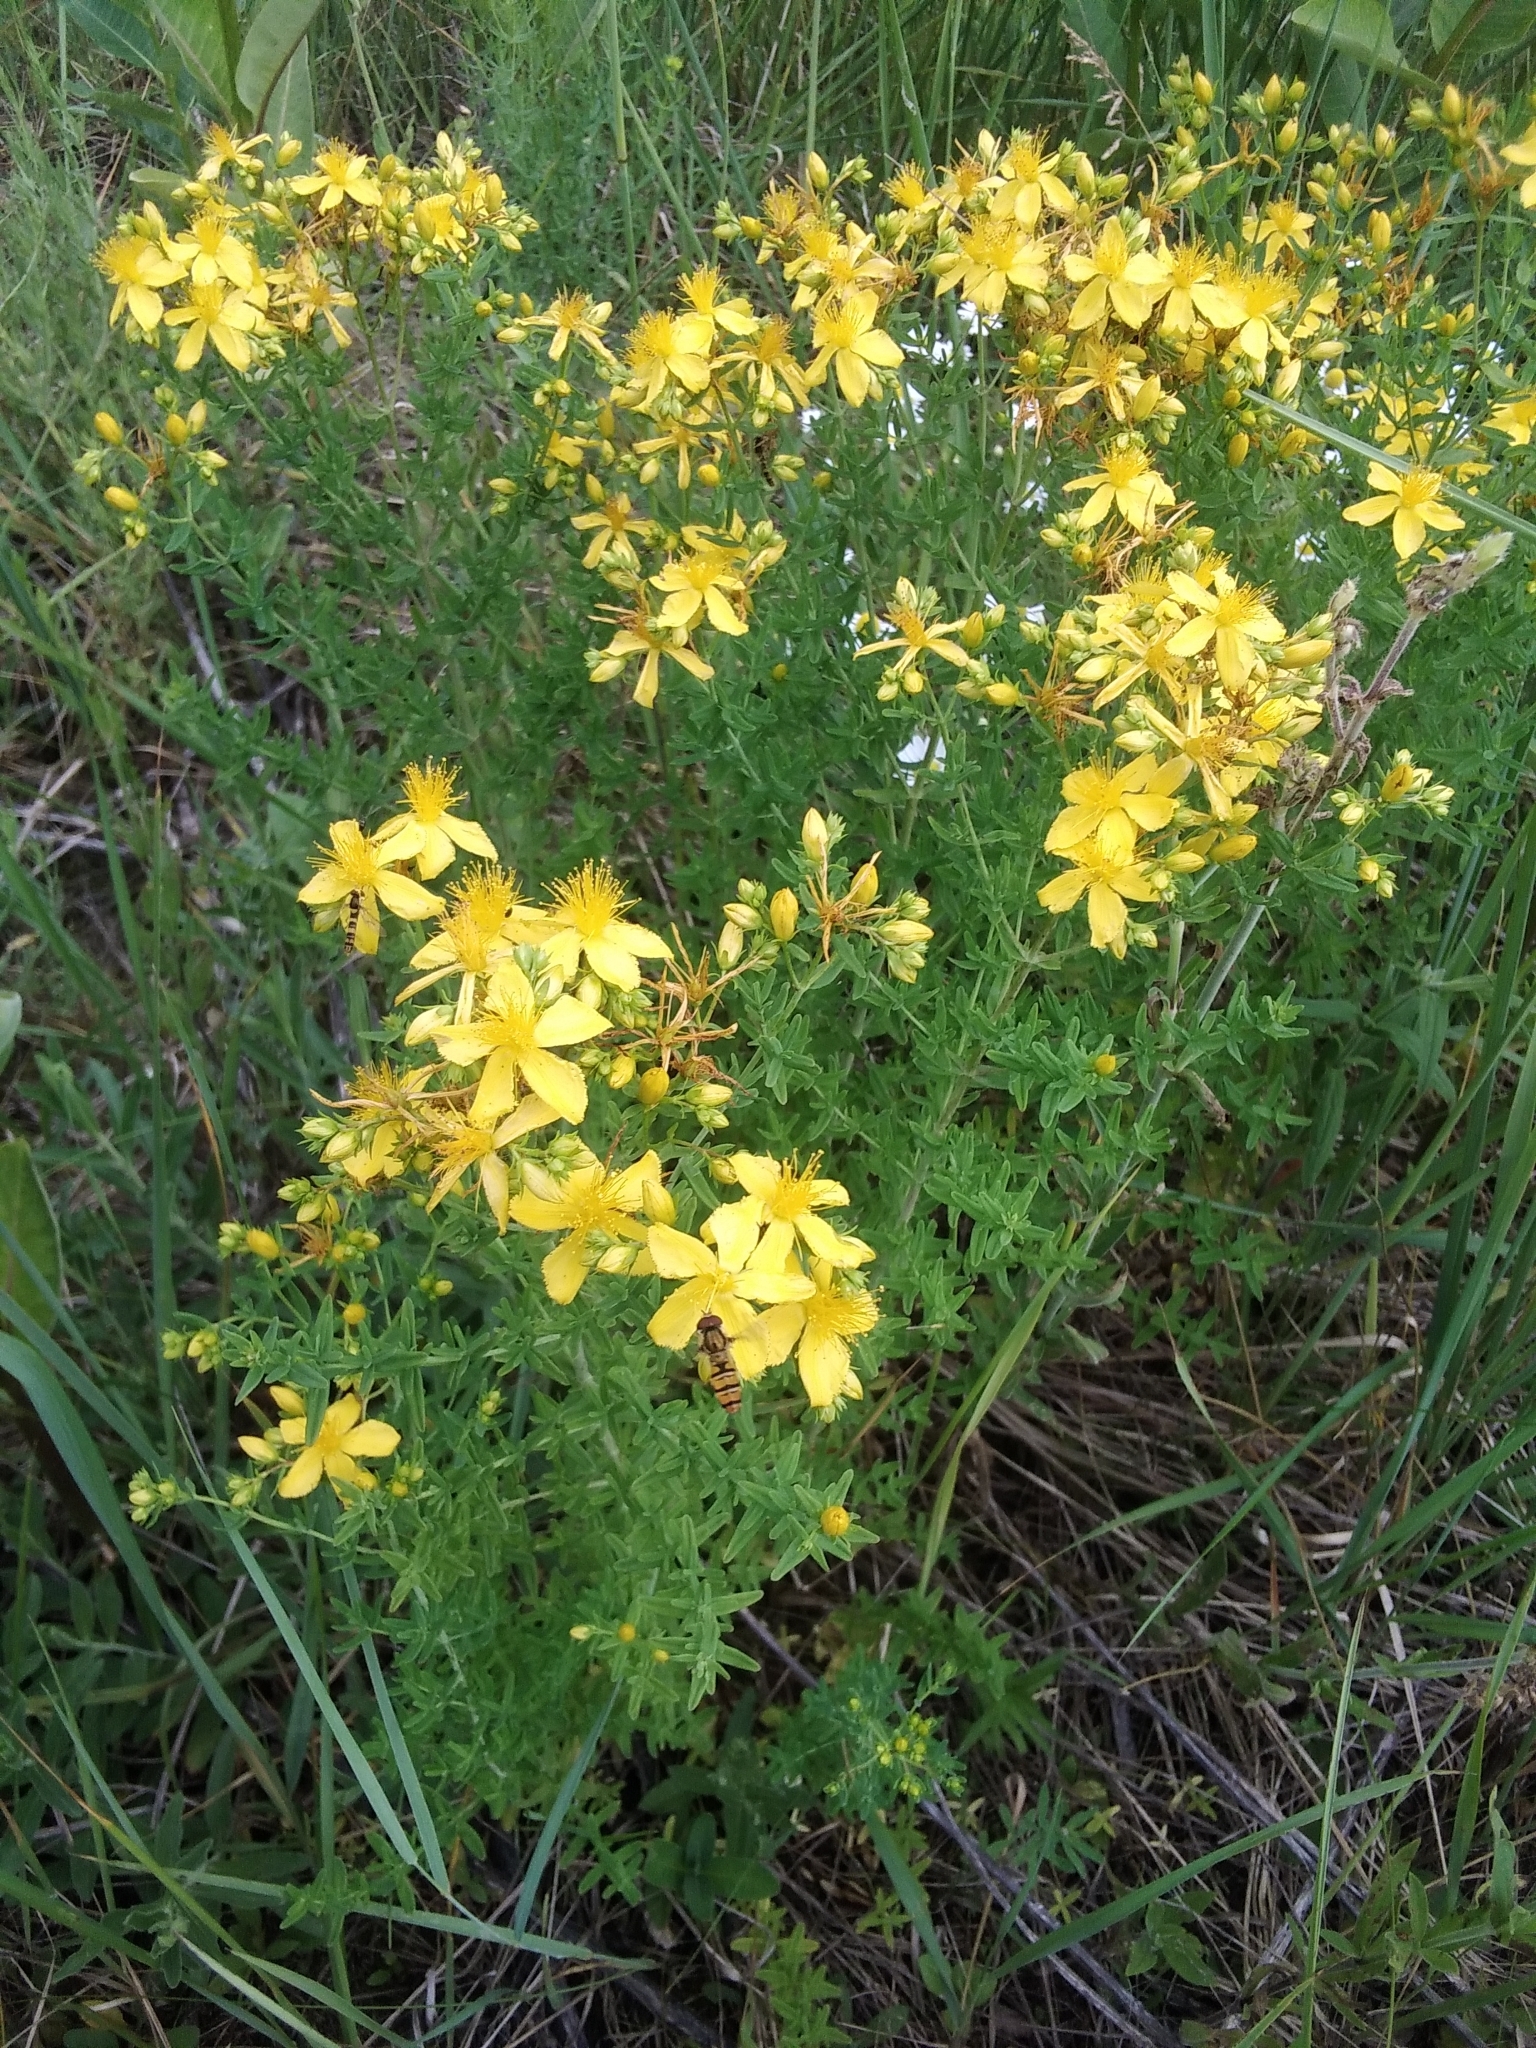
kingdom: Plantae
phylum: Tracheophyta
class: Magnoliopsida
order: Malpighiales
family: Hypericaceae
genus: Hypericum
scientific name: Hypericum perforatum
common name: Common st. johnswort
